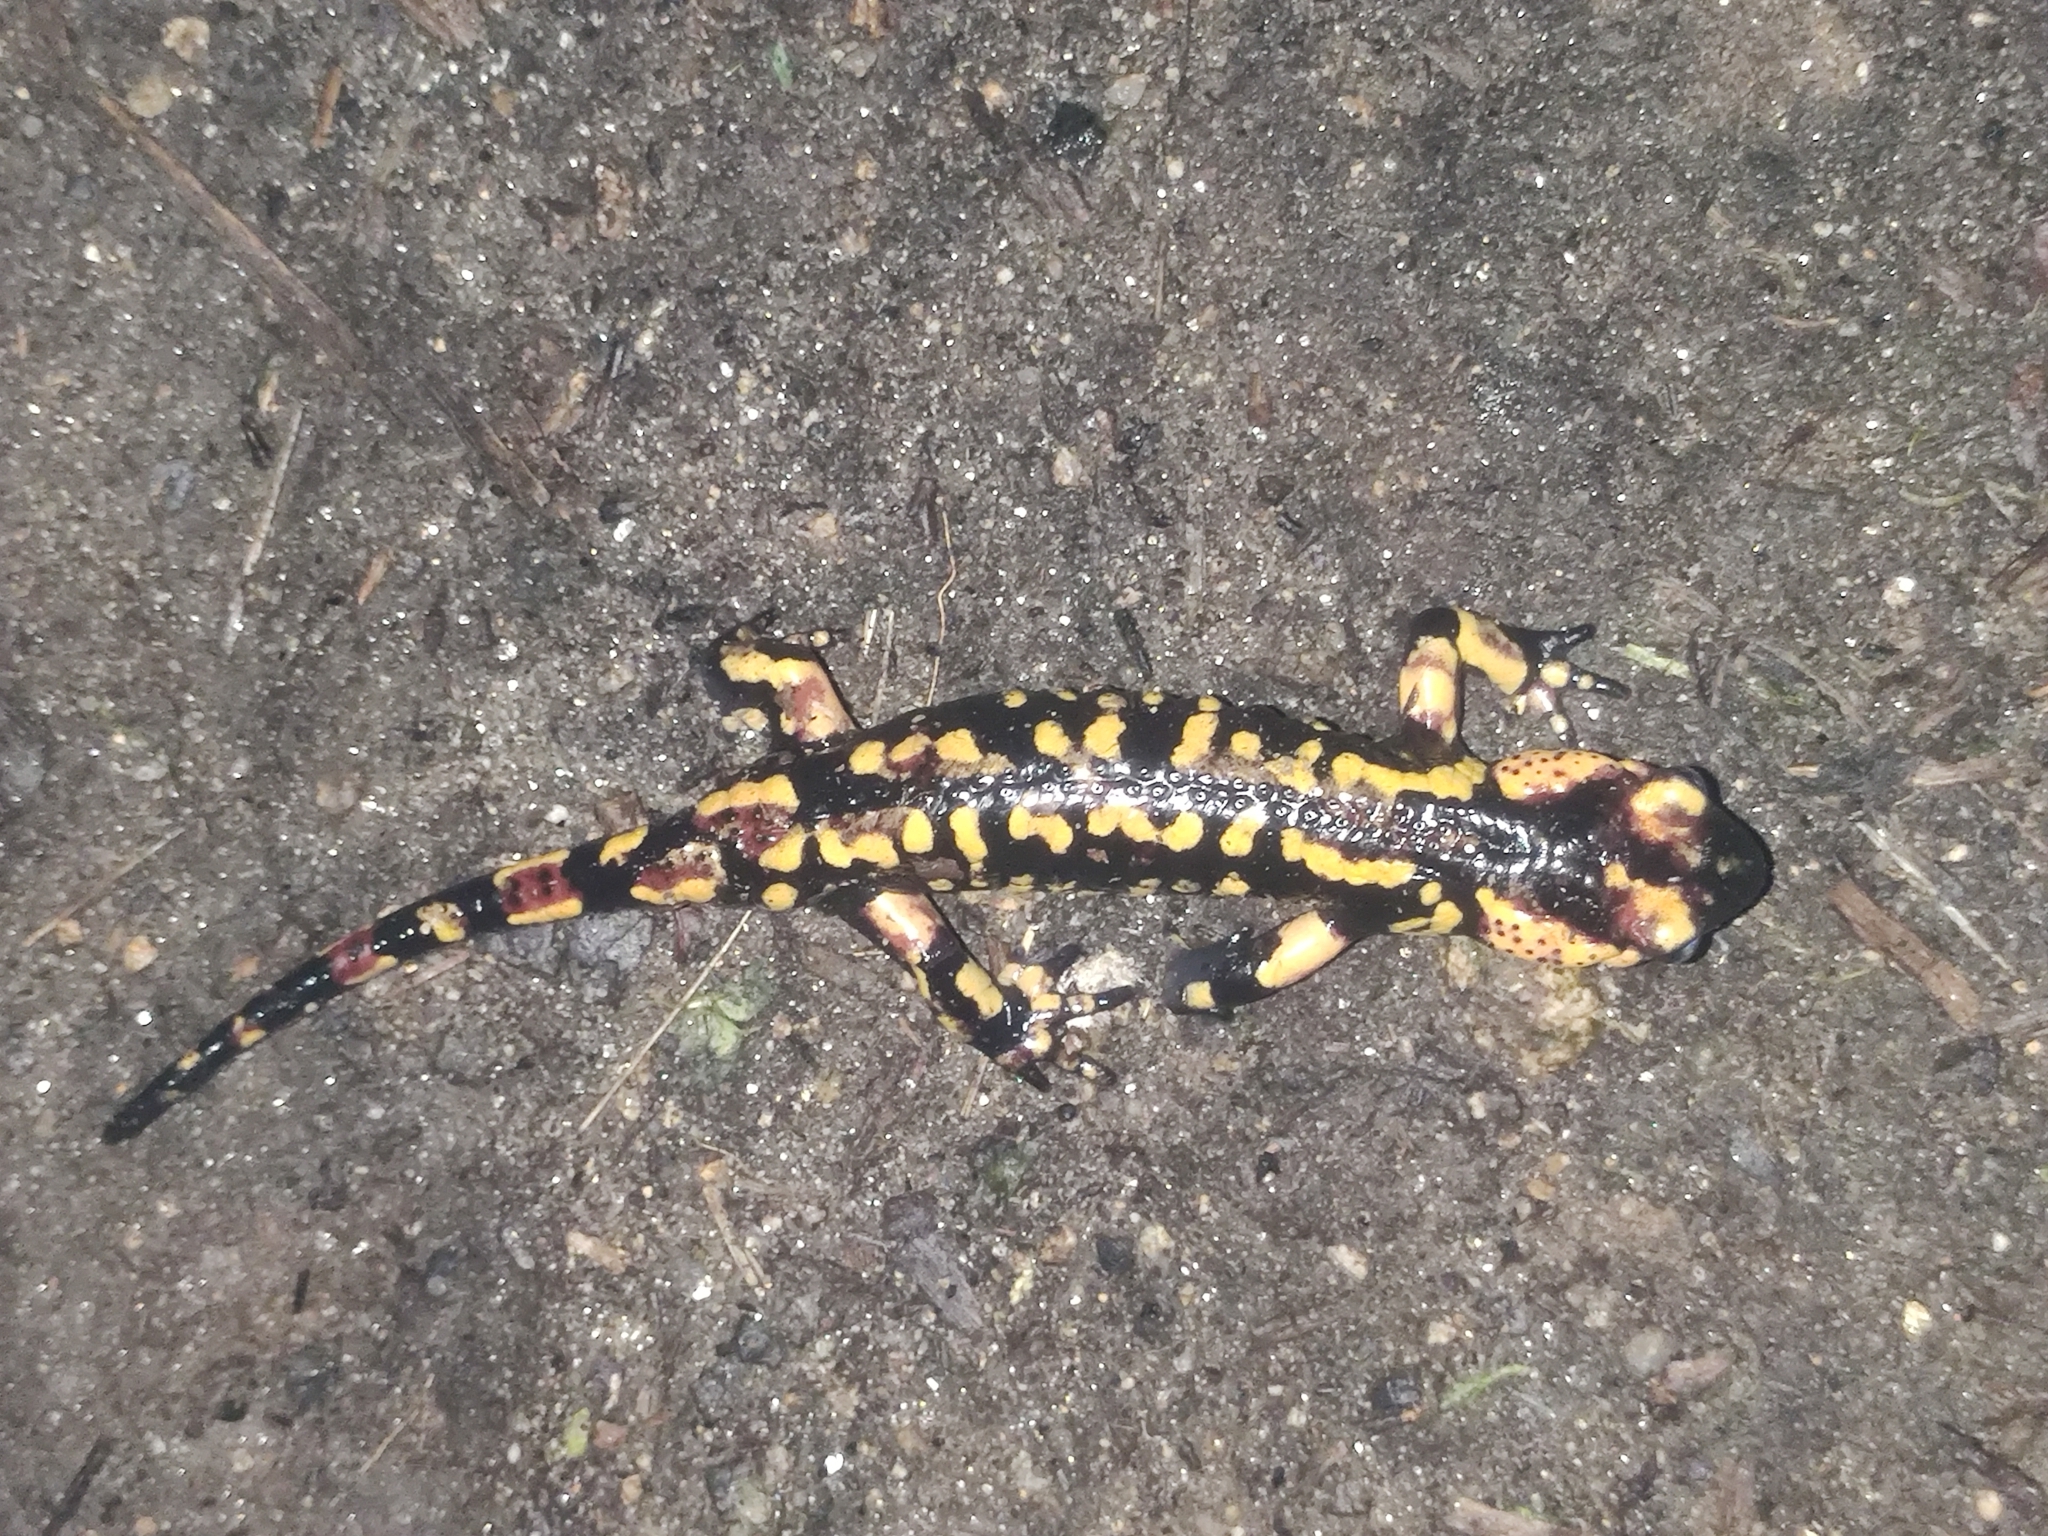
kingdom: Animalia
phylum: Chordata
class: Amphibia
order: Caudata
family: Salamandridae
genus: Salamandra
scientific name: Salamandra salamandra
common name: Fire salamander
